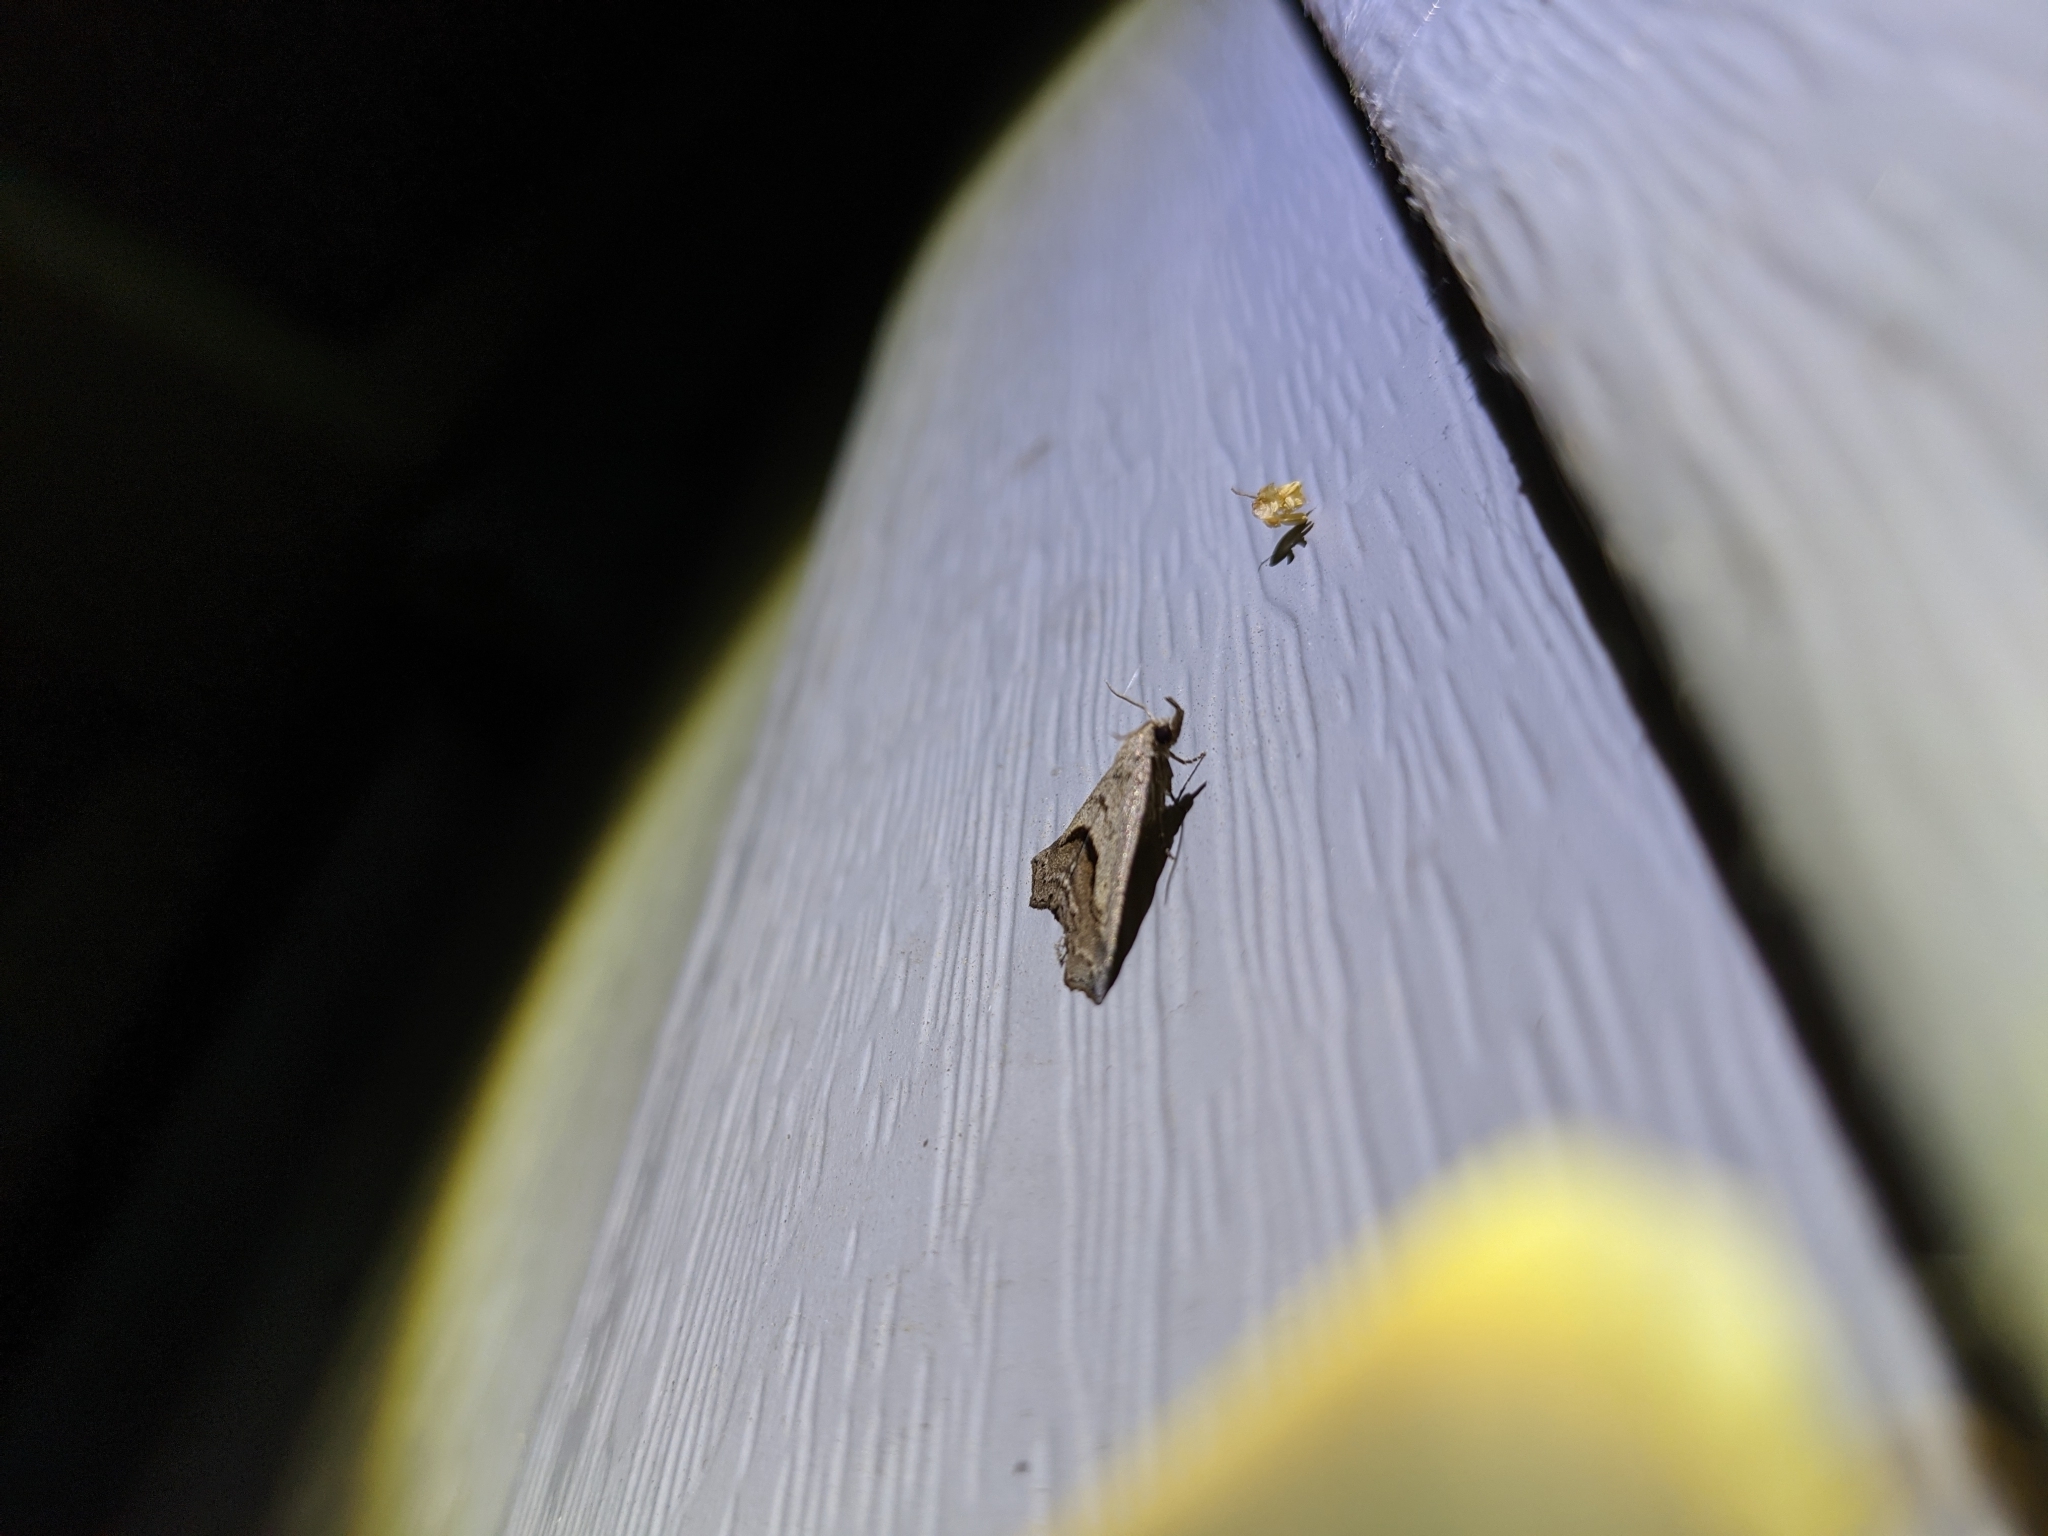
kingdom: Animalia
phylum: Arthropoda
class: Insecta
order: Lepidoptera
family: Erebidae
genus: Spargaloma
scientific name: Spargaloma perditalis
